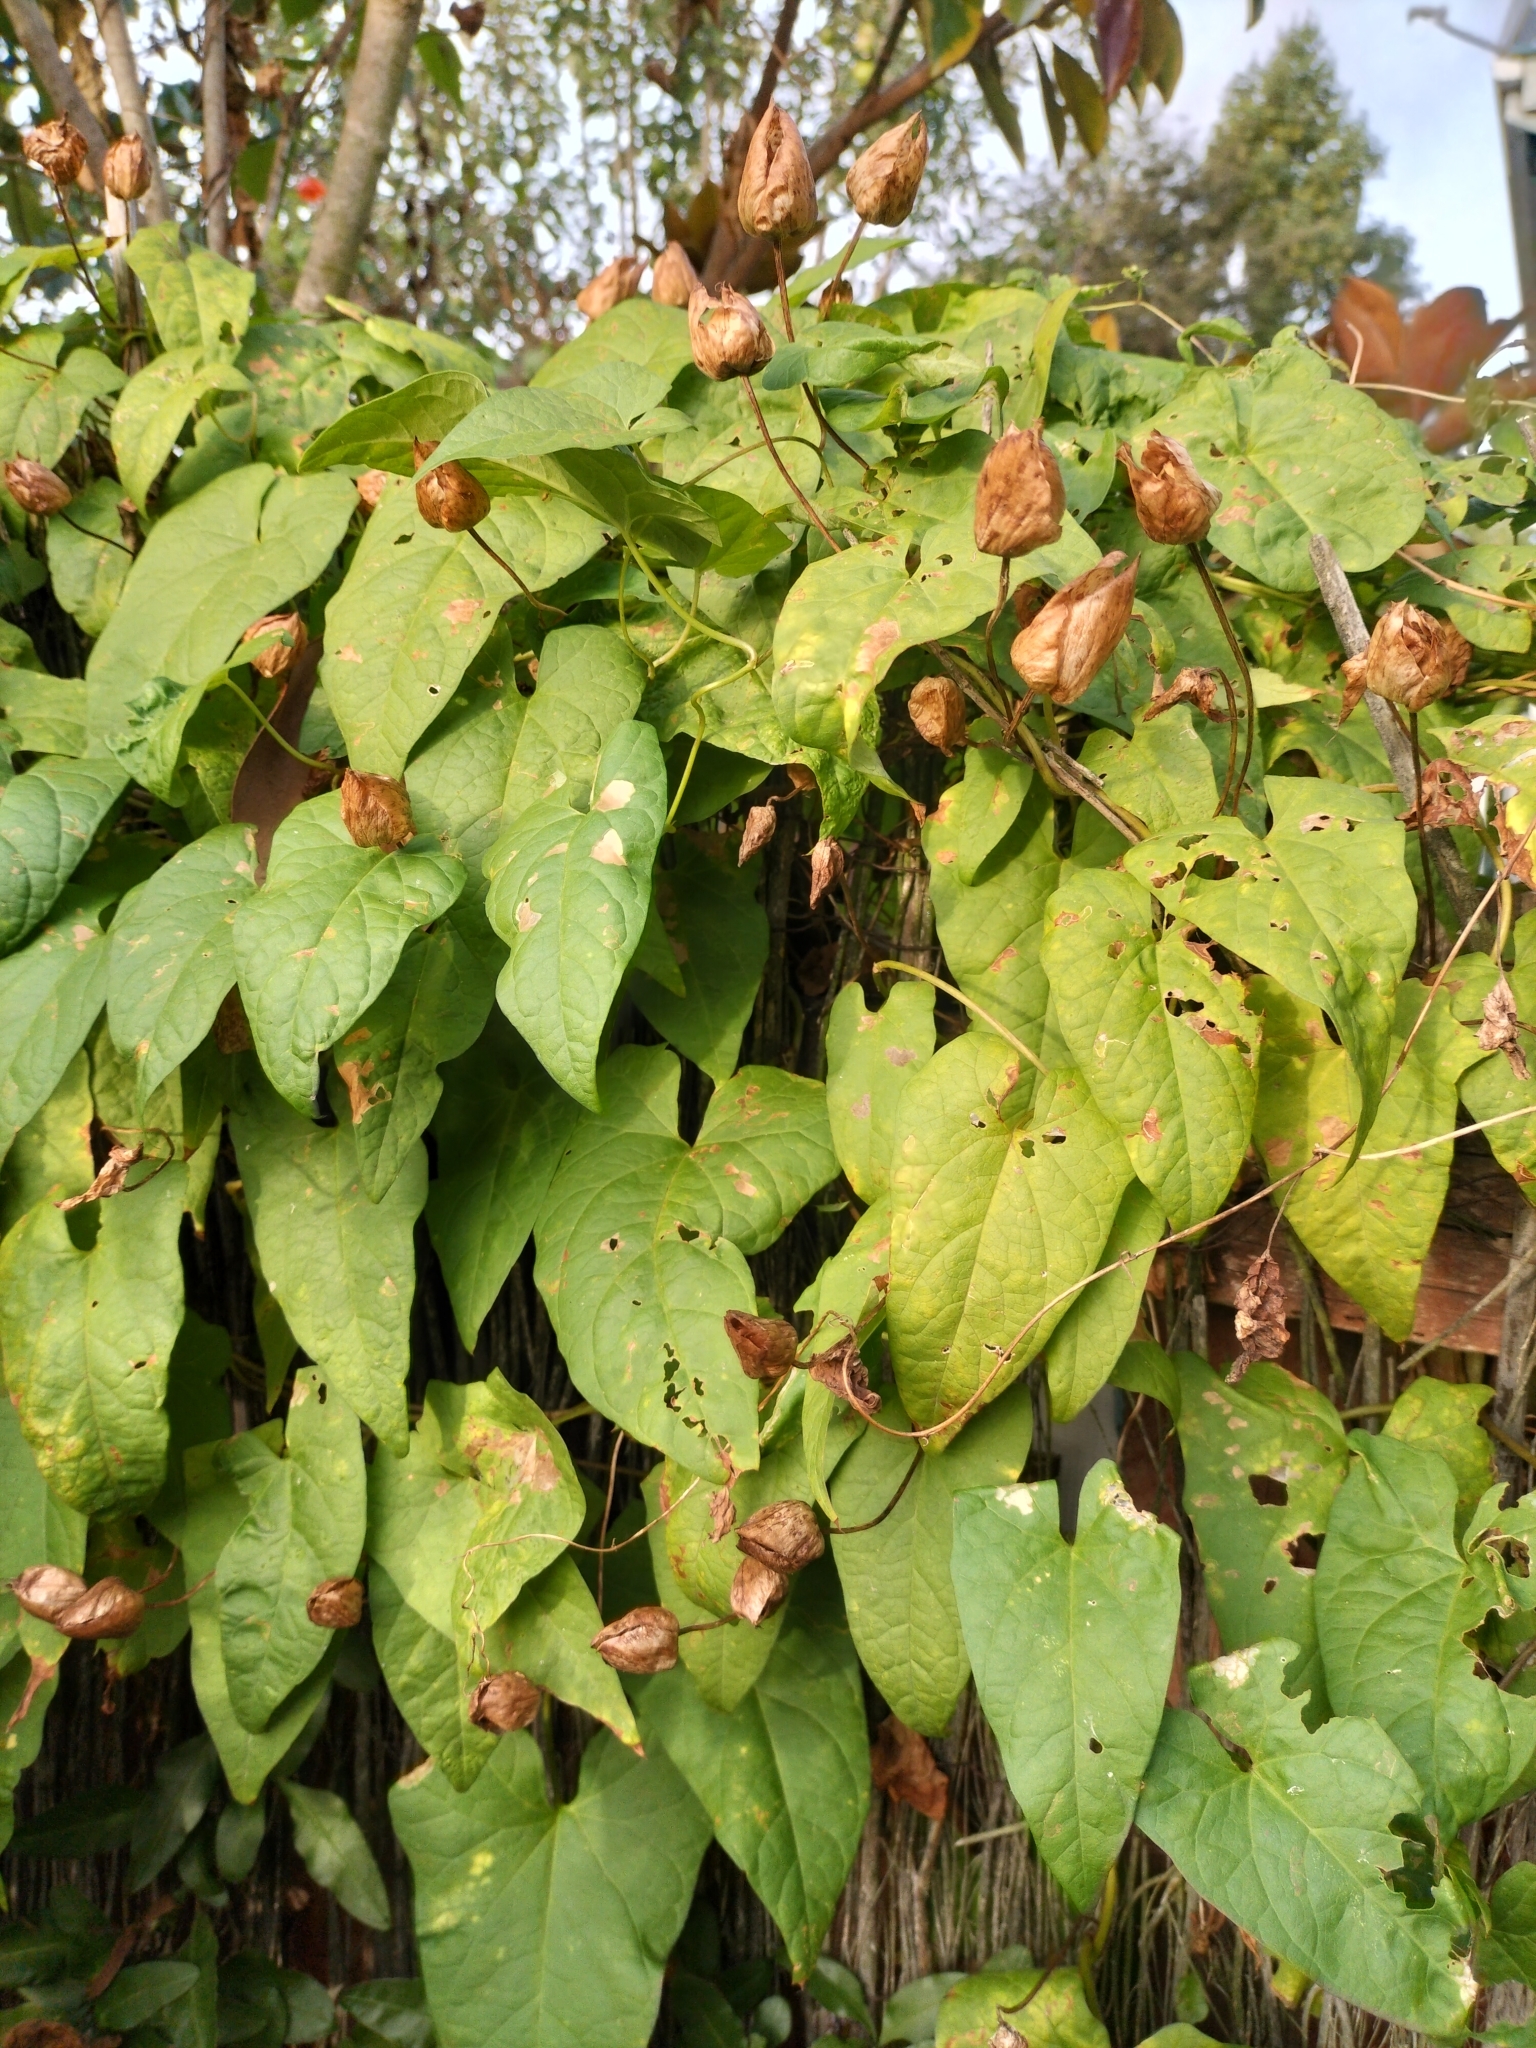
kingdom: Plantae
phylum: Tracheophyta
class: Magnoliopsida
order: Solanales
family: Convolvulaceae
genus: Calystegia
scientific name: Calystegia silvatica
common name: Large bindweed
